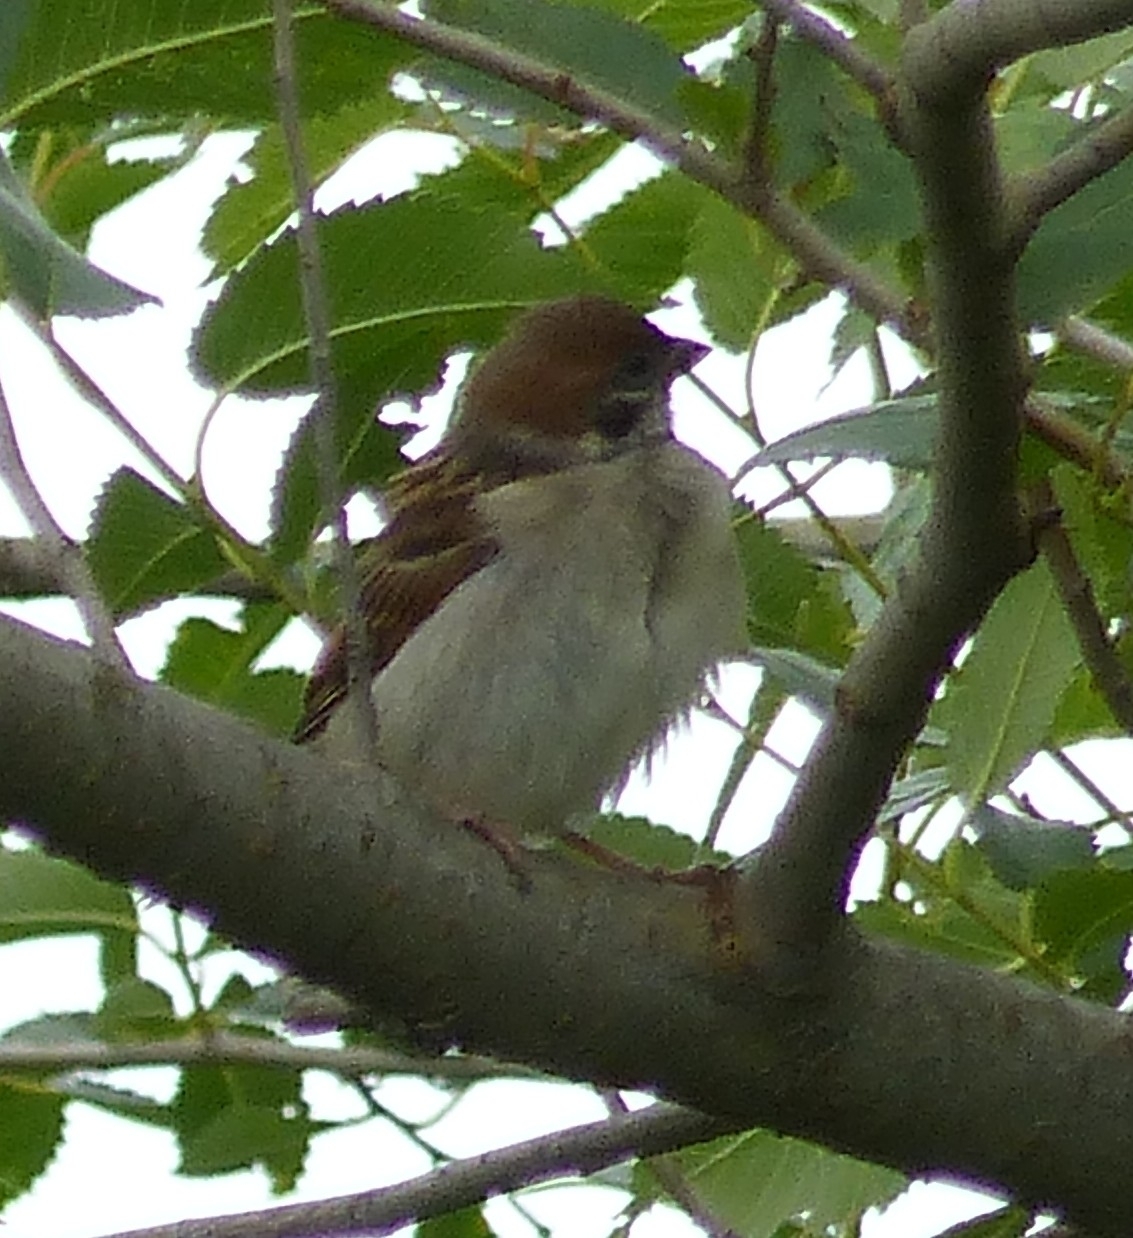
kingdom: Animalia
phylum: Chordata
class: Aves
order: Passeriformes
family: Passeridae
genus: Passer
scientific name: Passer montanus
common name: Eurasian tree sparrow
